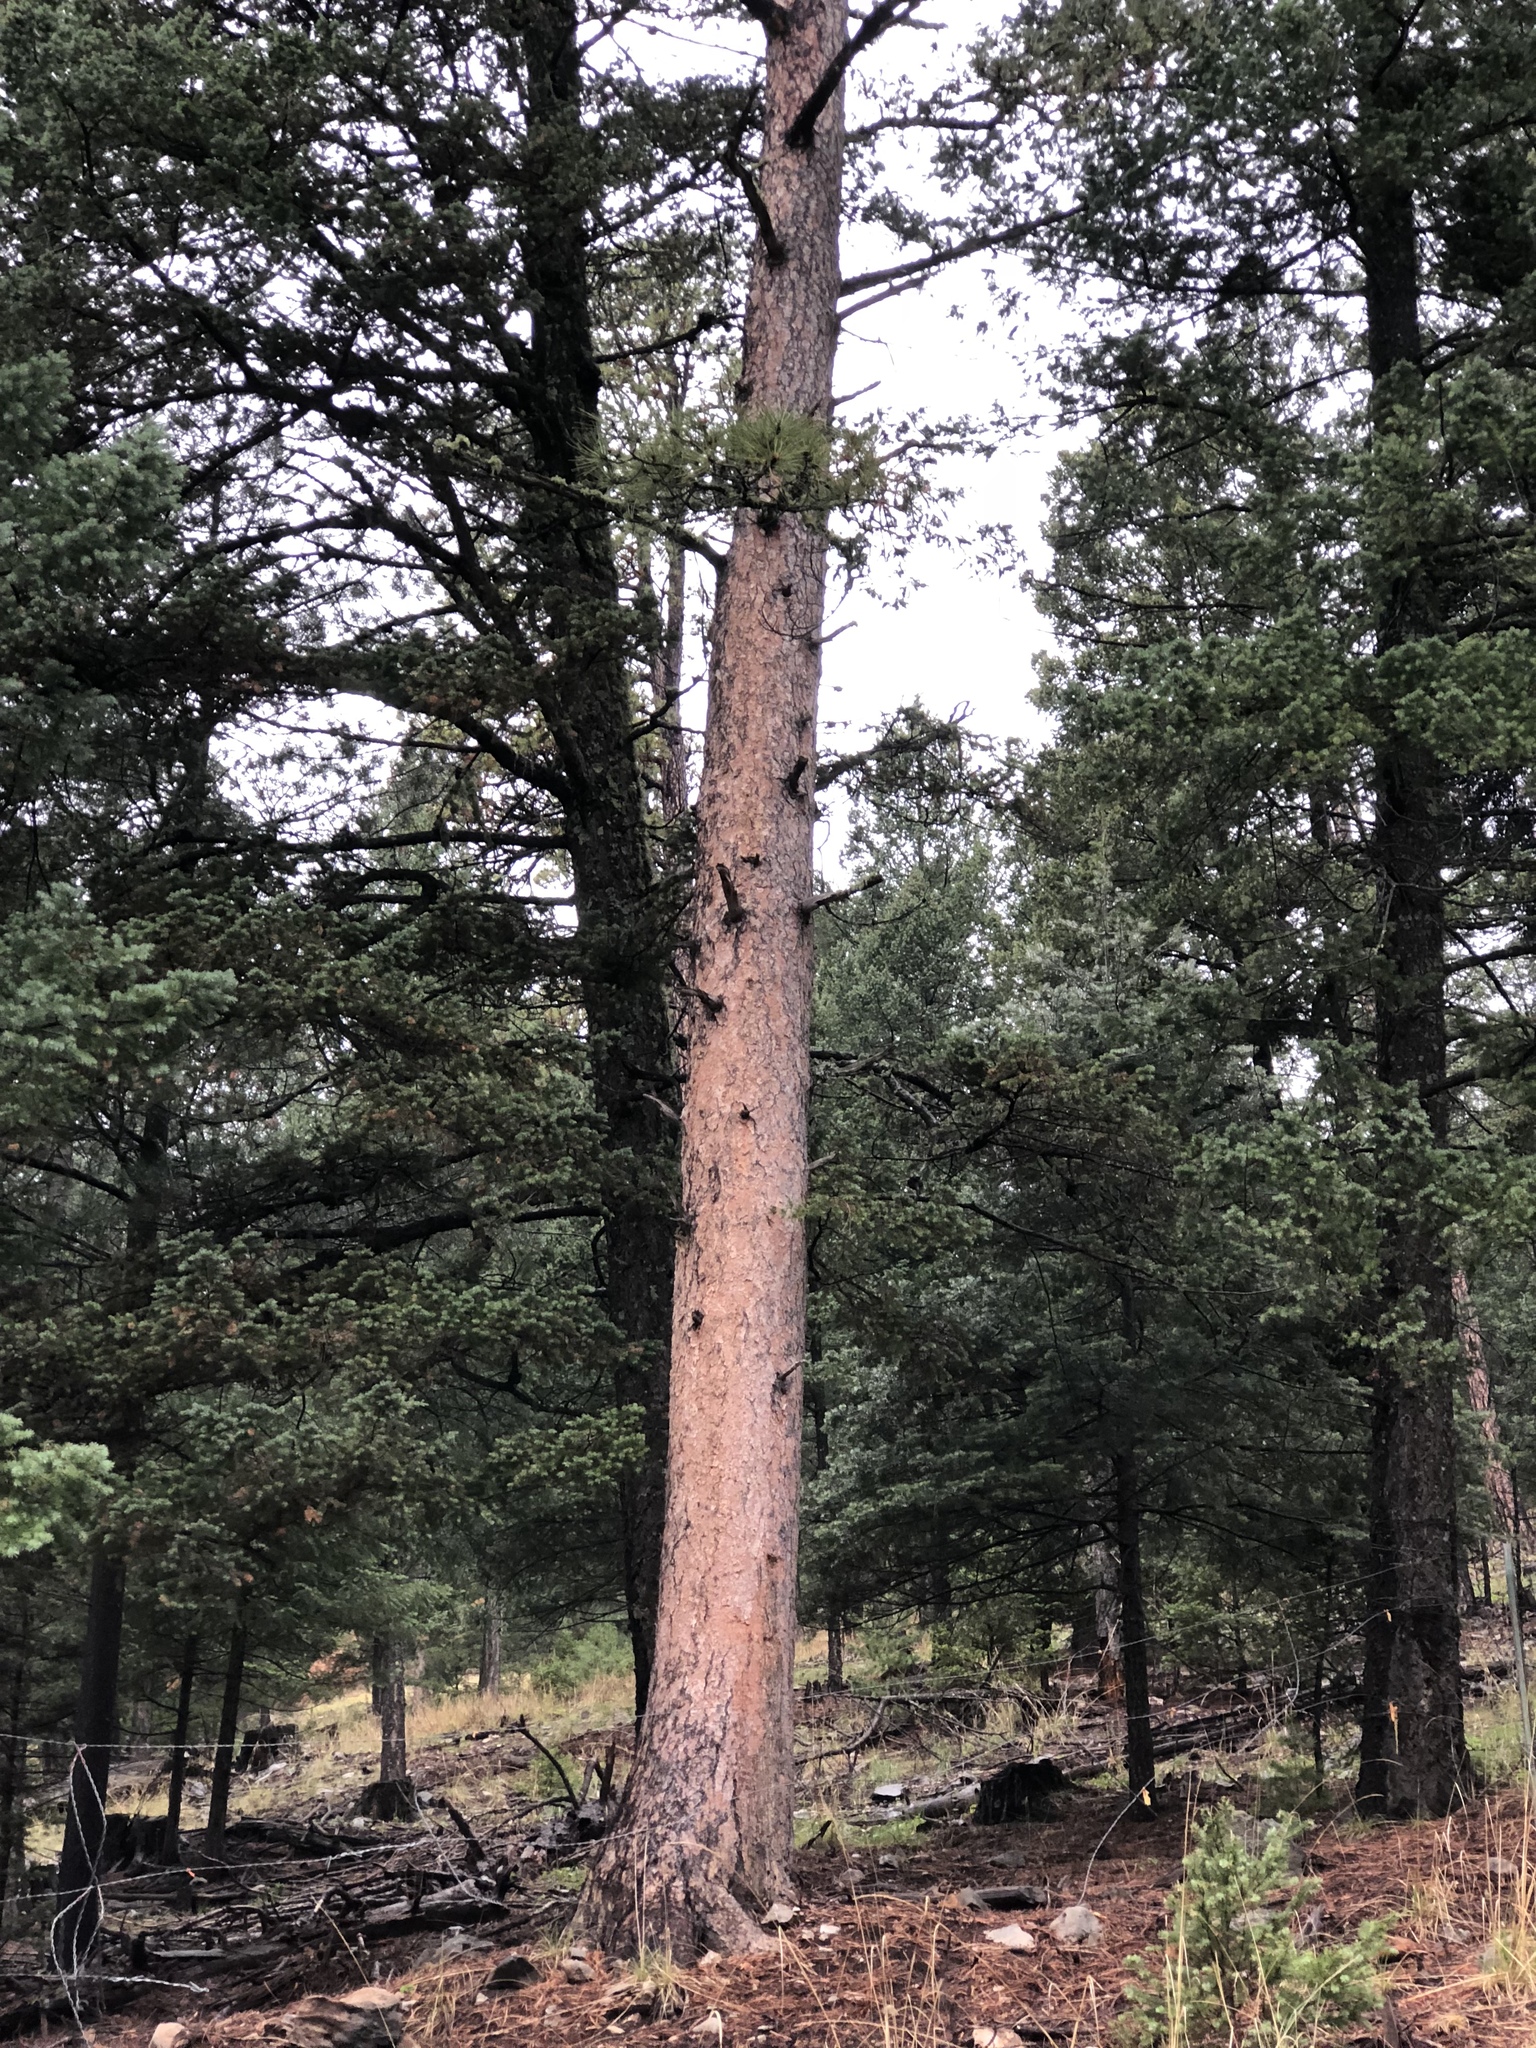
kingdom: Plantae
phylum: Tracheophyta
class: Pinopsida
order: Pinales
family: Pinaceae
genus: Pinus
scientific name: Pinus ponderosa
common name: Western yellow-pine
